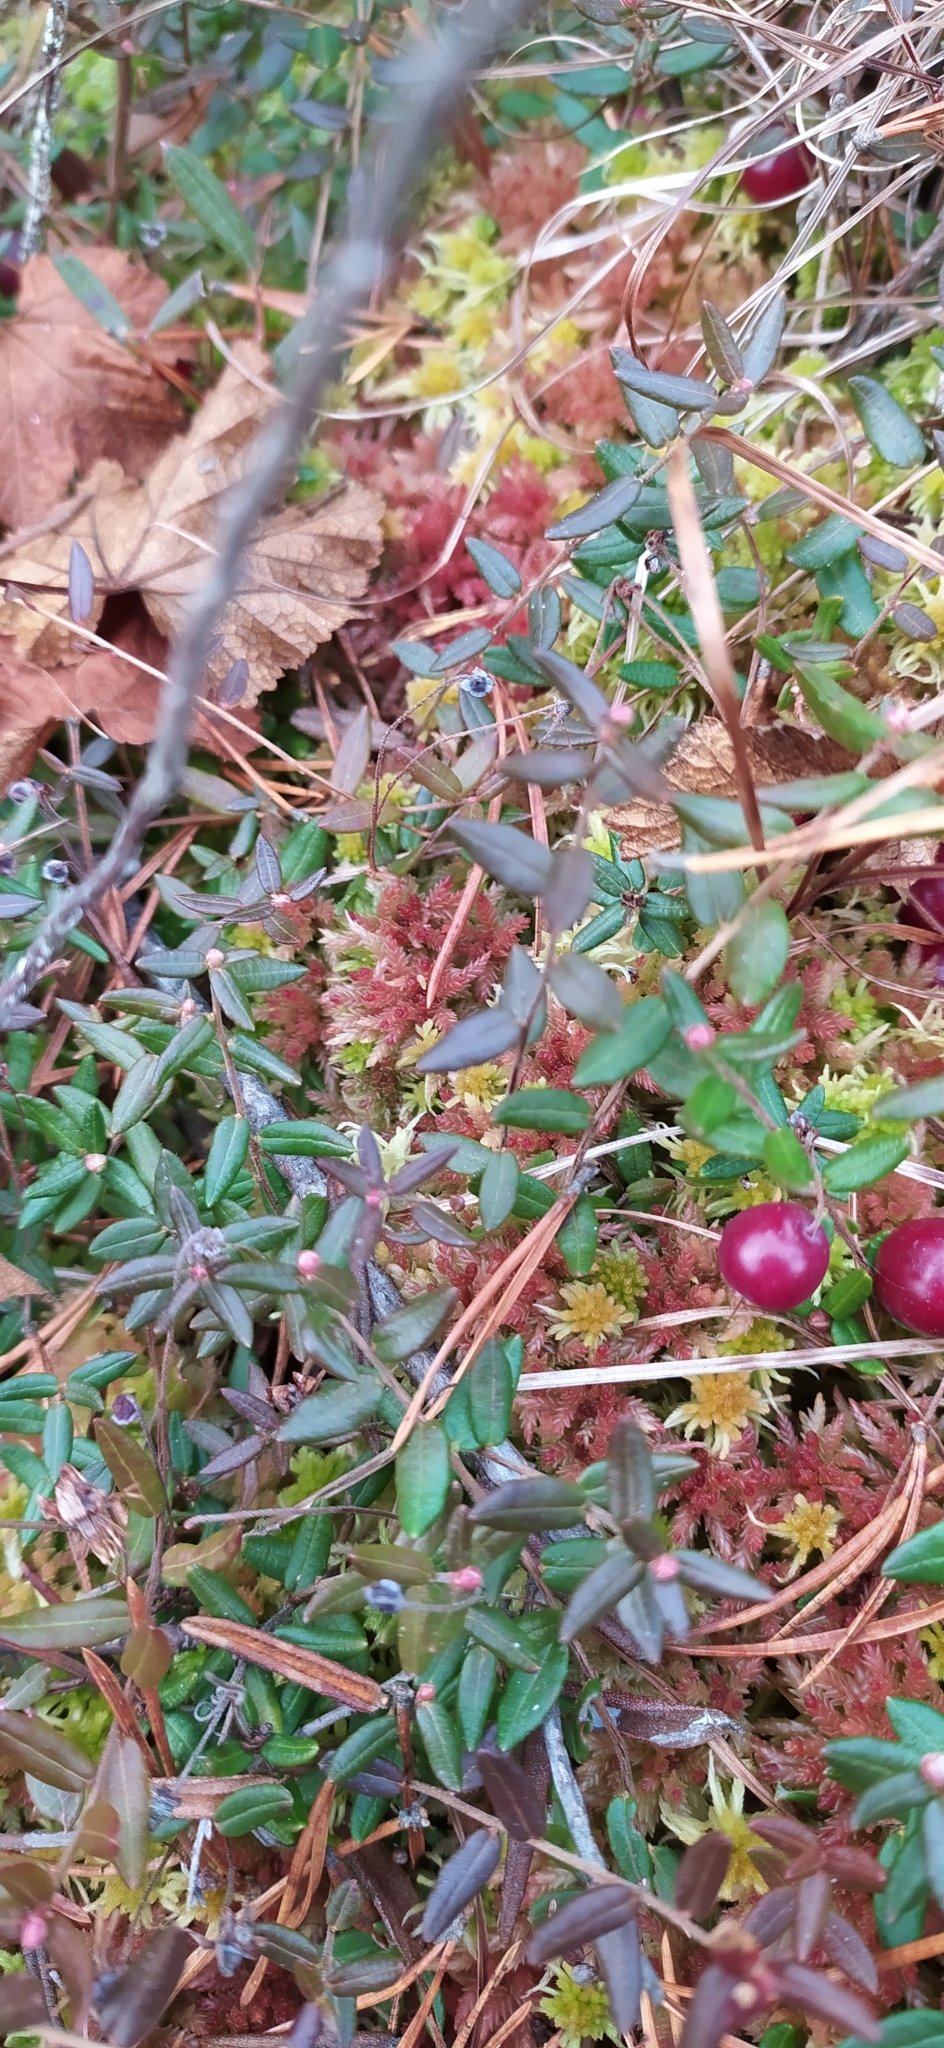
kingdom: Plantae
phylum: Tracheophyta
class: Magnoliopsida
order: Ericales
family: Ericaceae
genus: Vaccinium
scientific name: Vaccinium oxycoccos
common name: Cranberry
